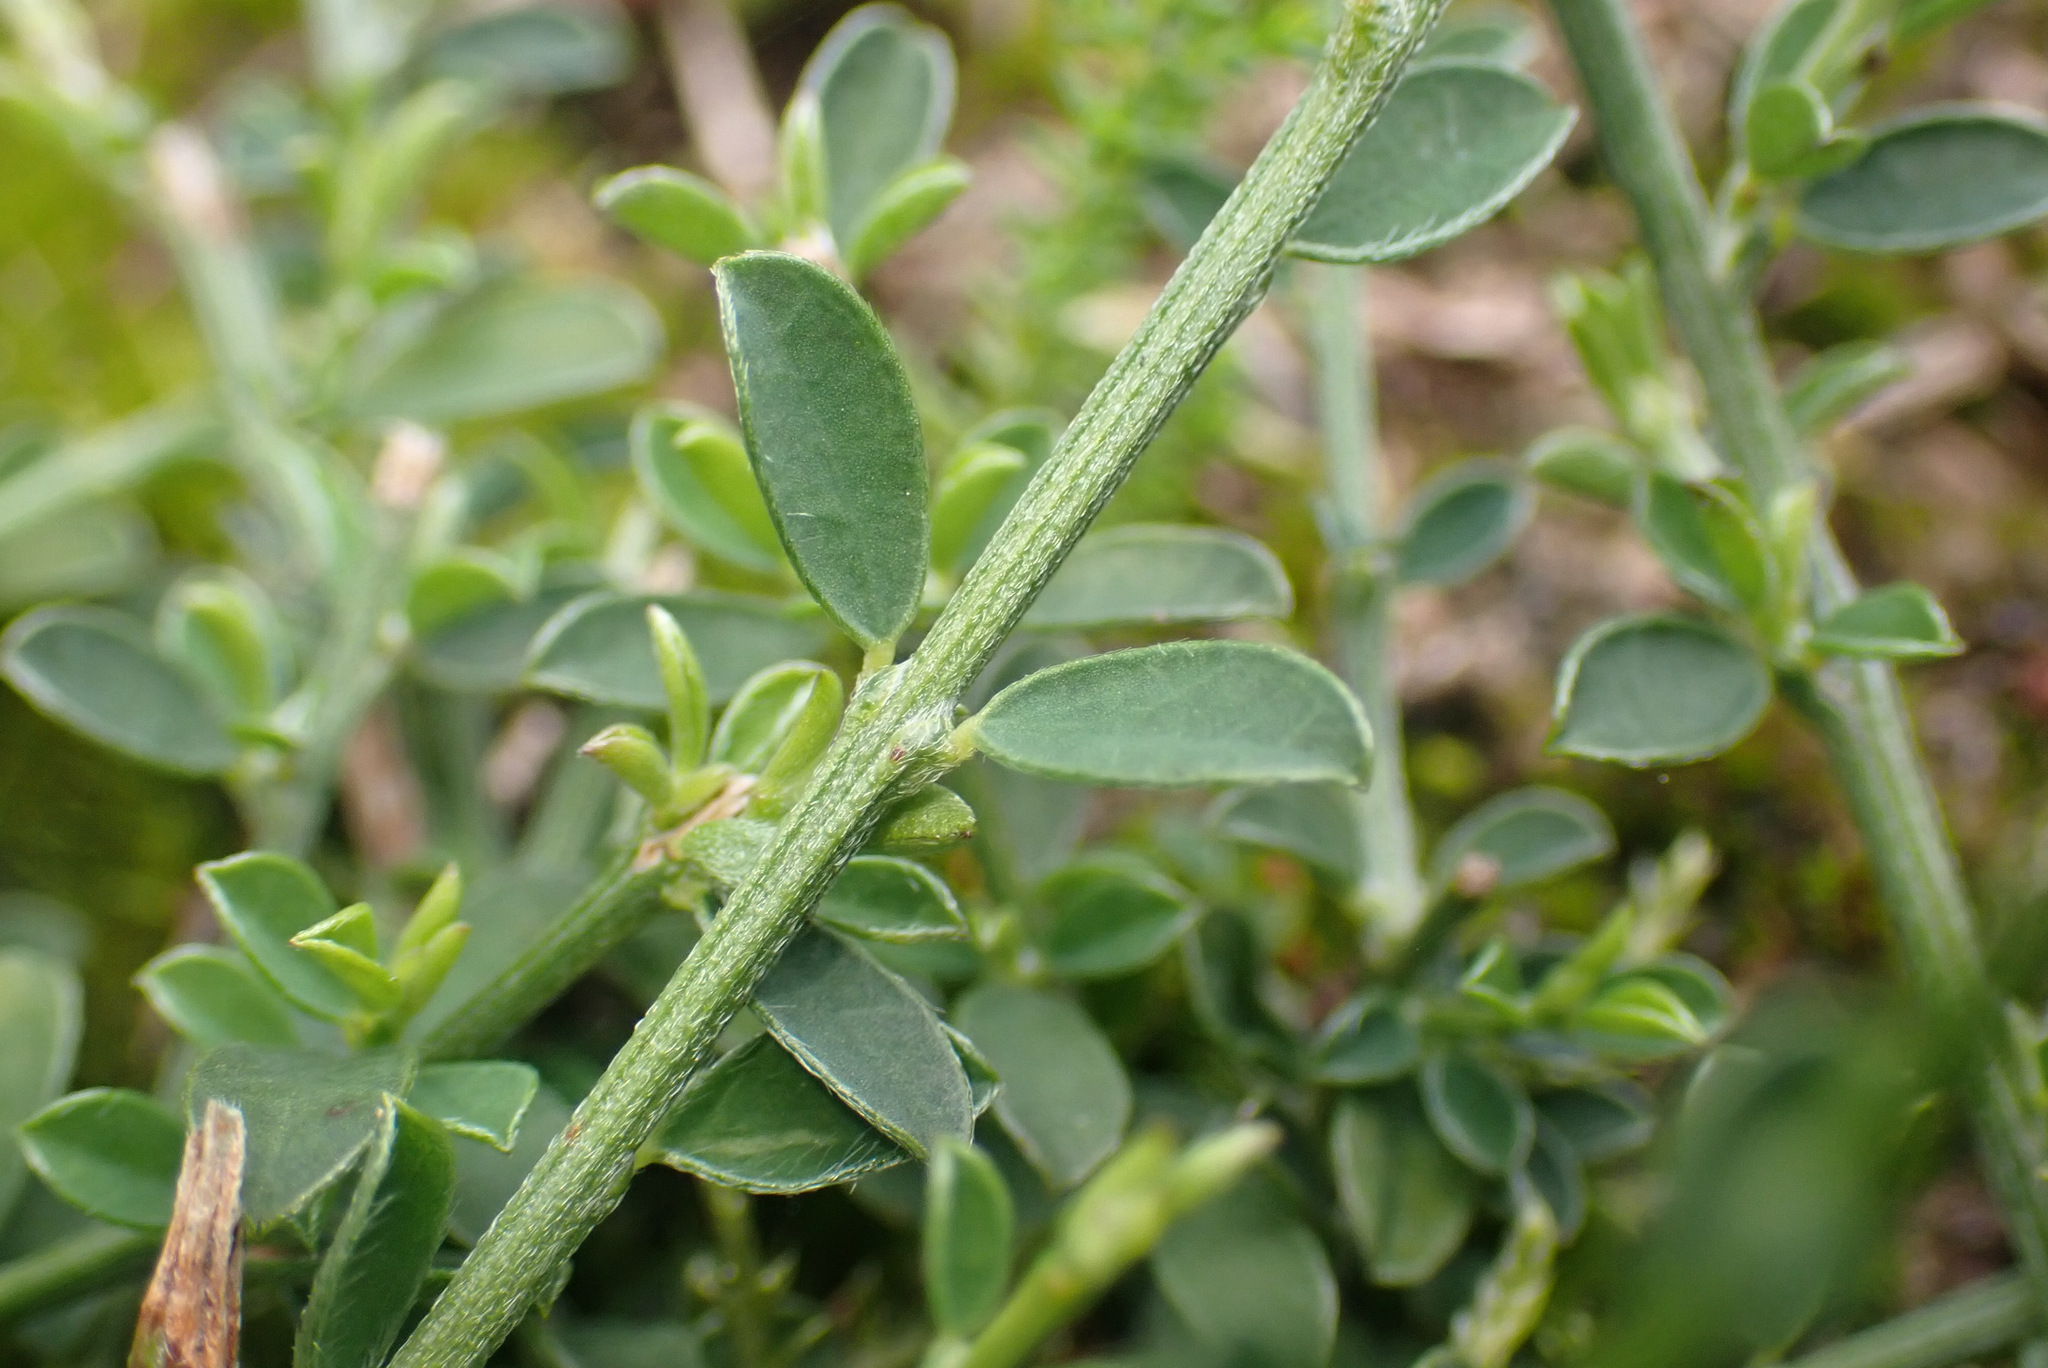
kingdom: Plantae
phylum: Tracheophyta
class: Magnoliopsida
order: Fabales
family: Fabaceae
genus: Genista
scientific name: Genista pilosa
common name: Hairy greenweed
